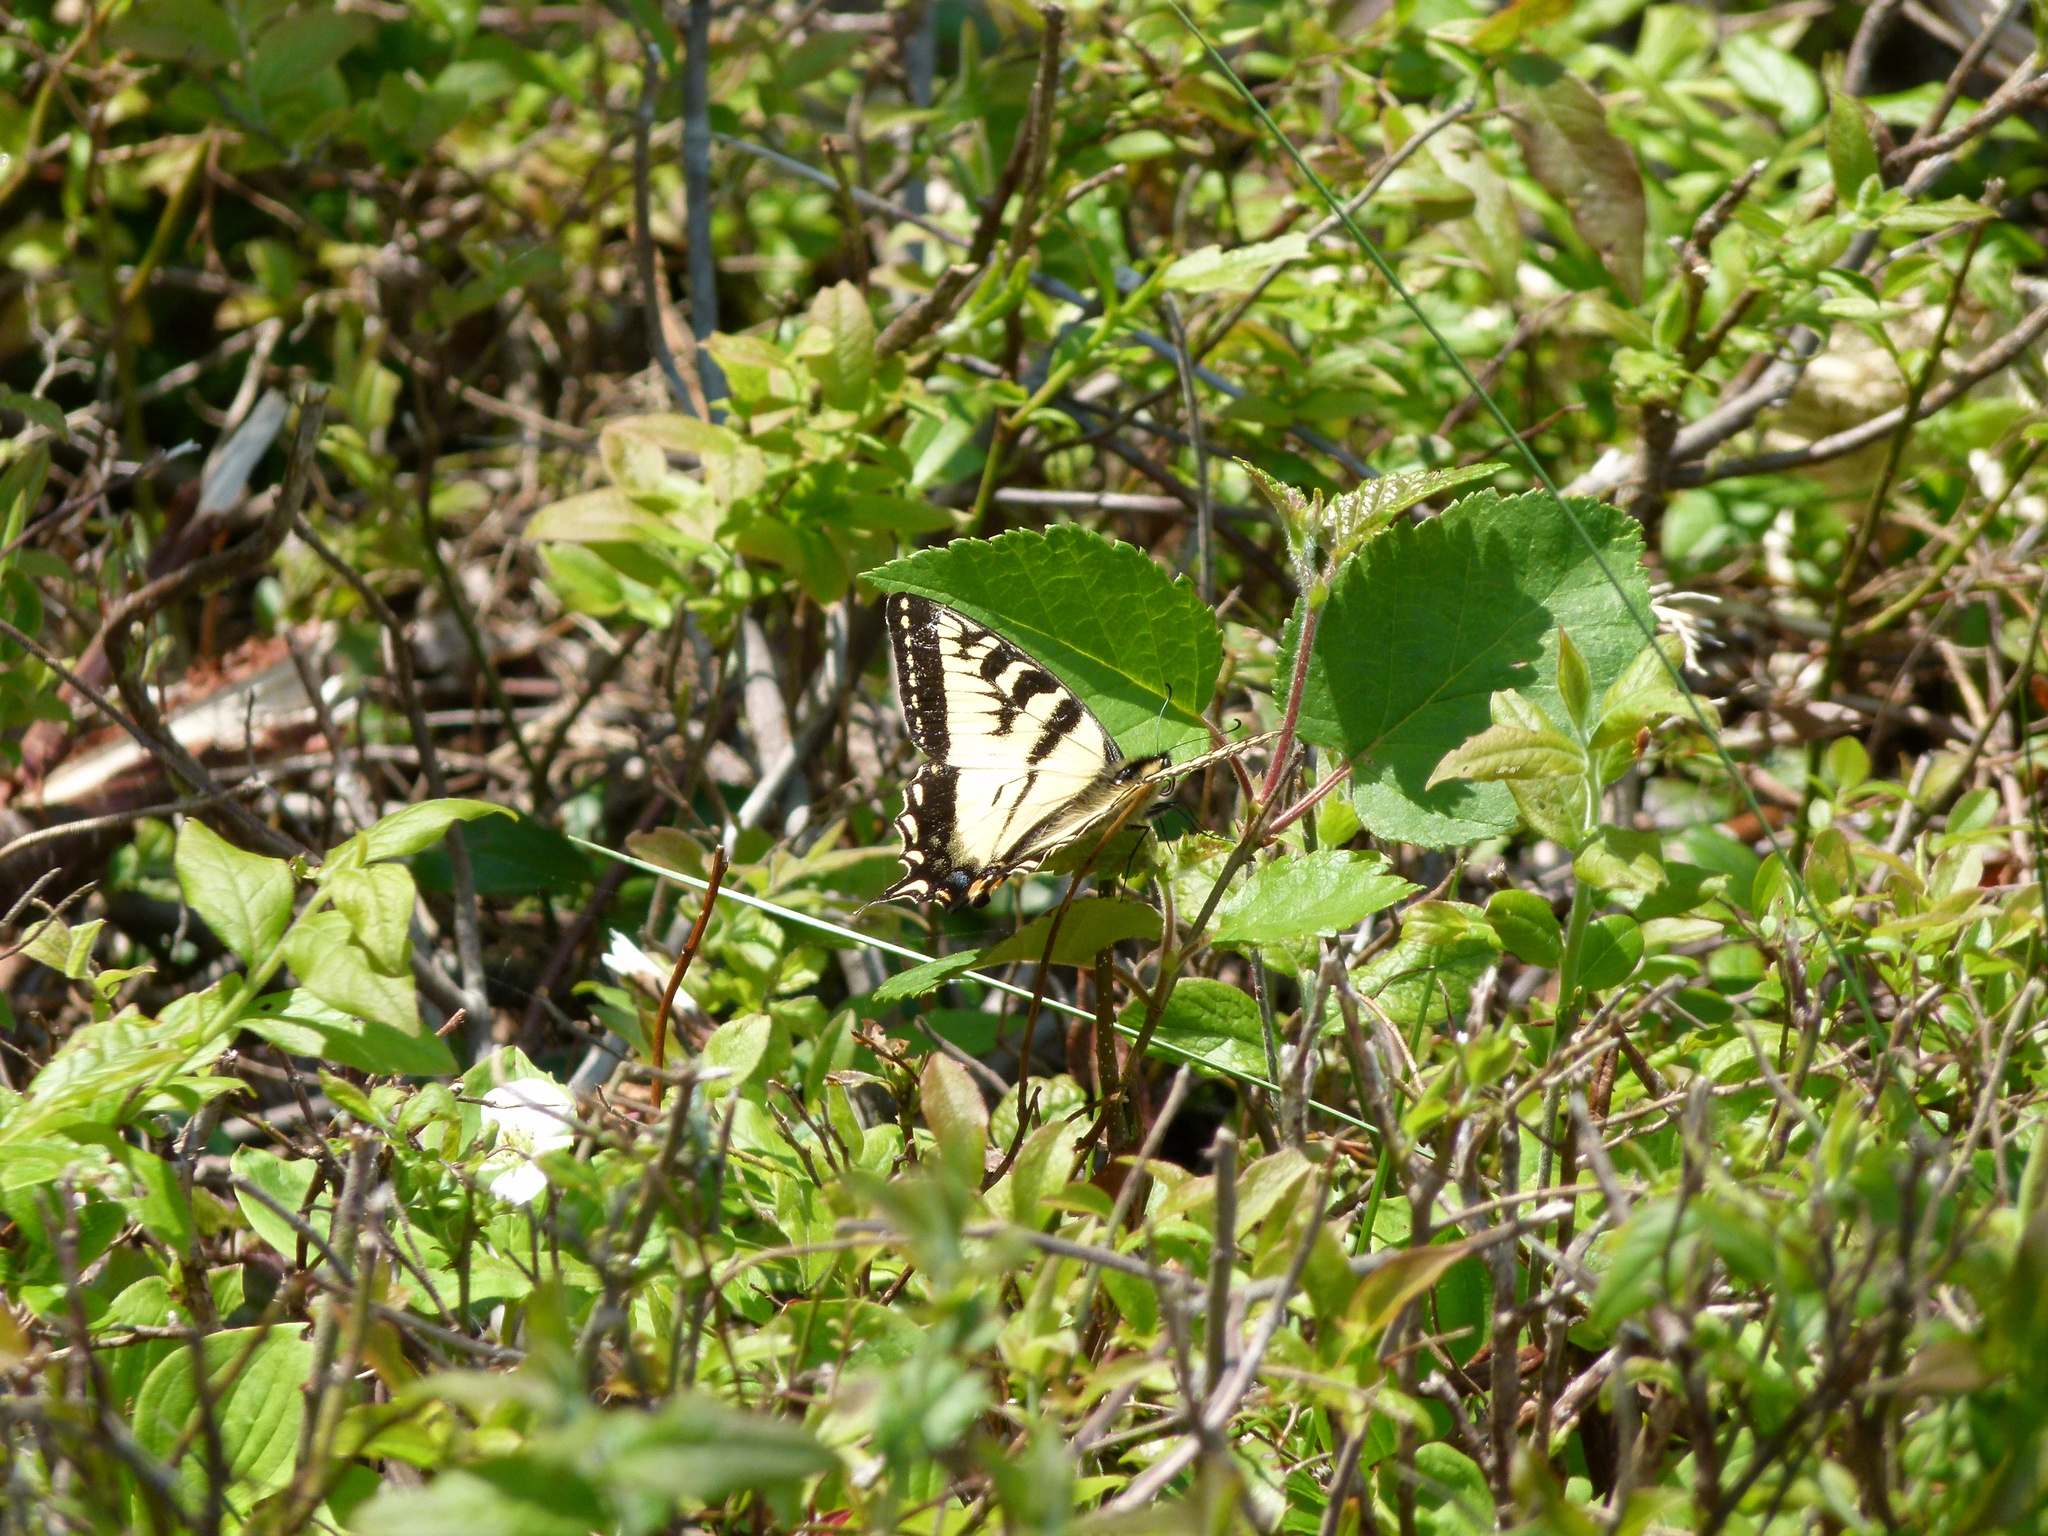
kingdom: Animalia
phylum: Arthropoda
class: Insecta
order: Lepidoptera
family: Papilionidae
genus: Papilio
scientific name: Papilio canadensis
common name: Canadian tiger swallowtail
